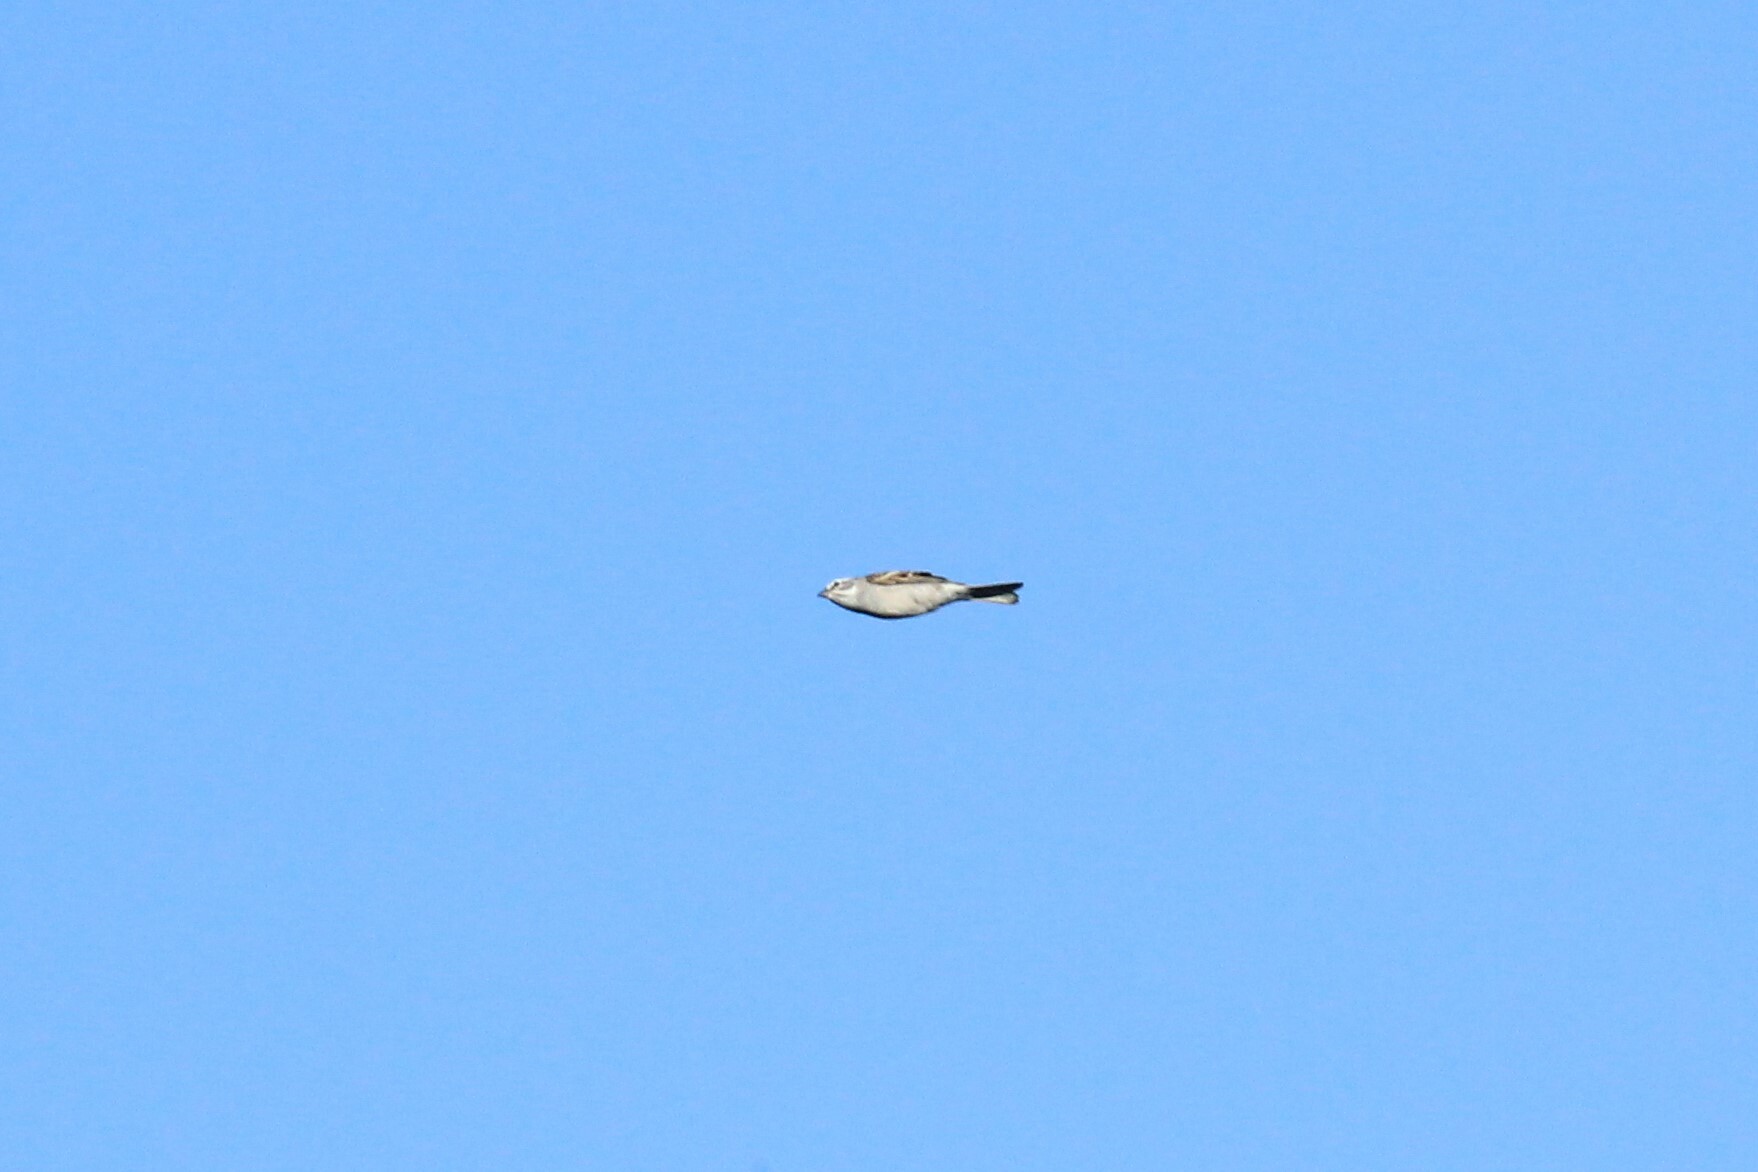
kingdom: Animalia
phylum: Chordata
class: Aves
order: Passeriformes
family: Passerellidae
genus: Spizella
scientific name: Spizella passerina
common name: Chipping sparrow
